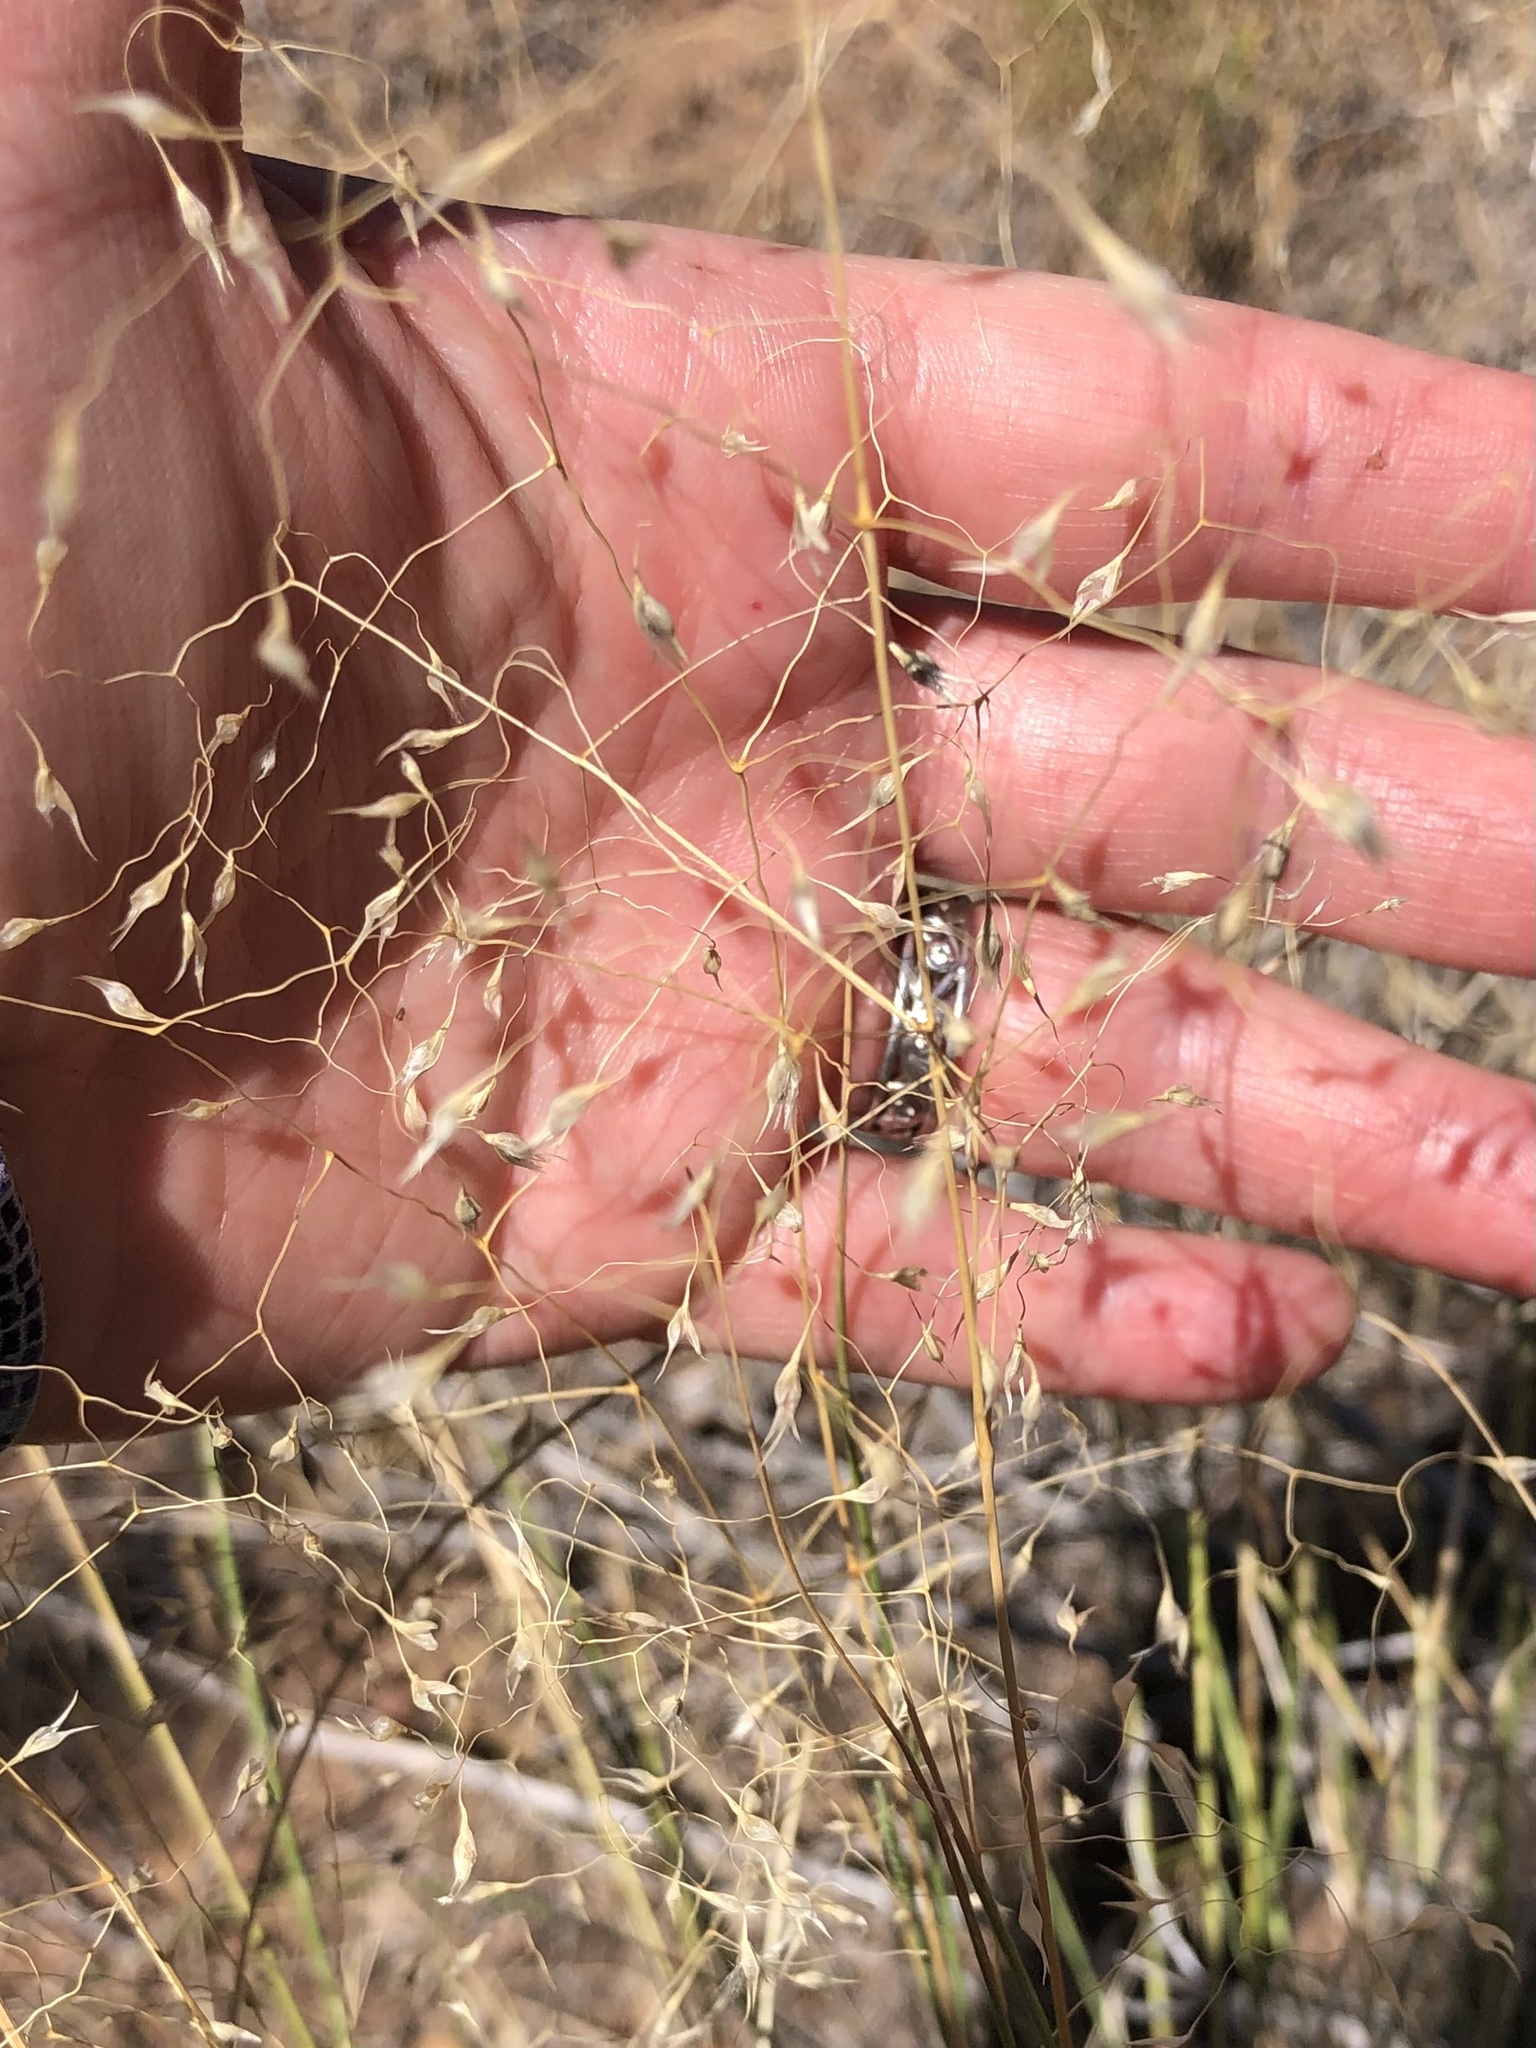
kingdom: Plantae
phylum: Tracheophyta
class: Liliopsida
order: Poales
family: Poaceae
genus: Eriocoma
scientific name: Eriocoma hymenoides
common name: Indian mountain ricegrass
